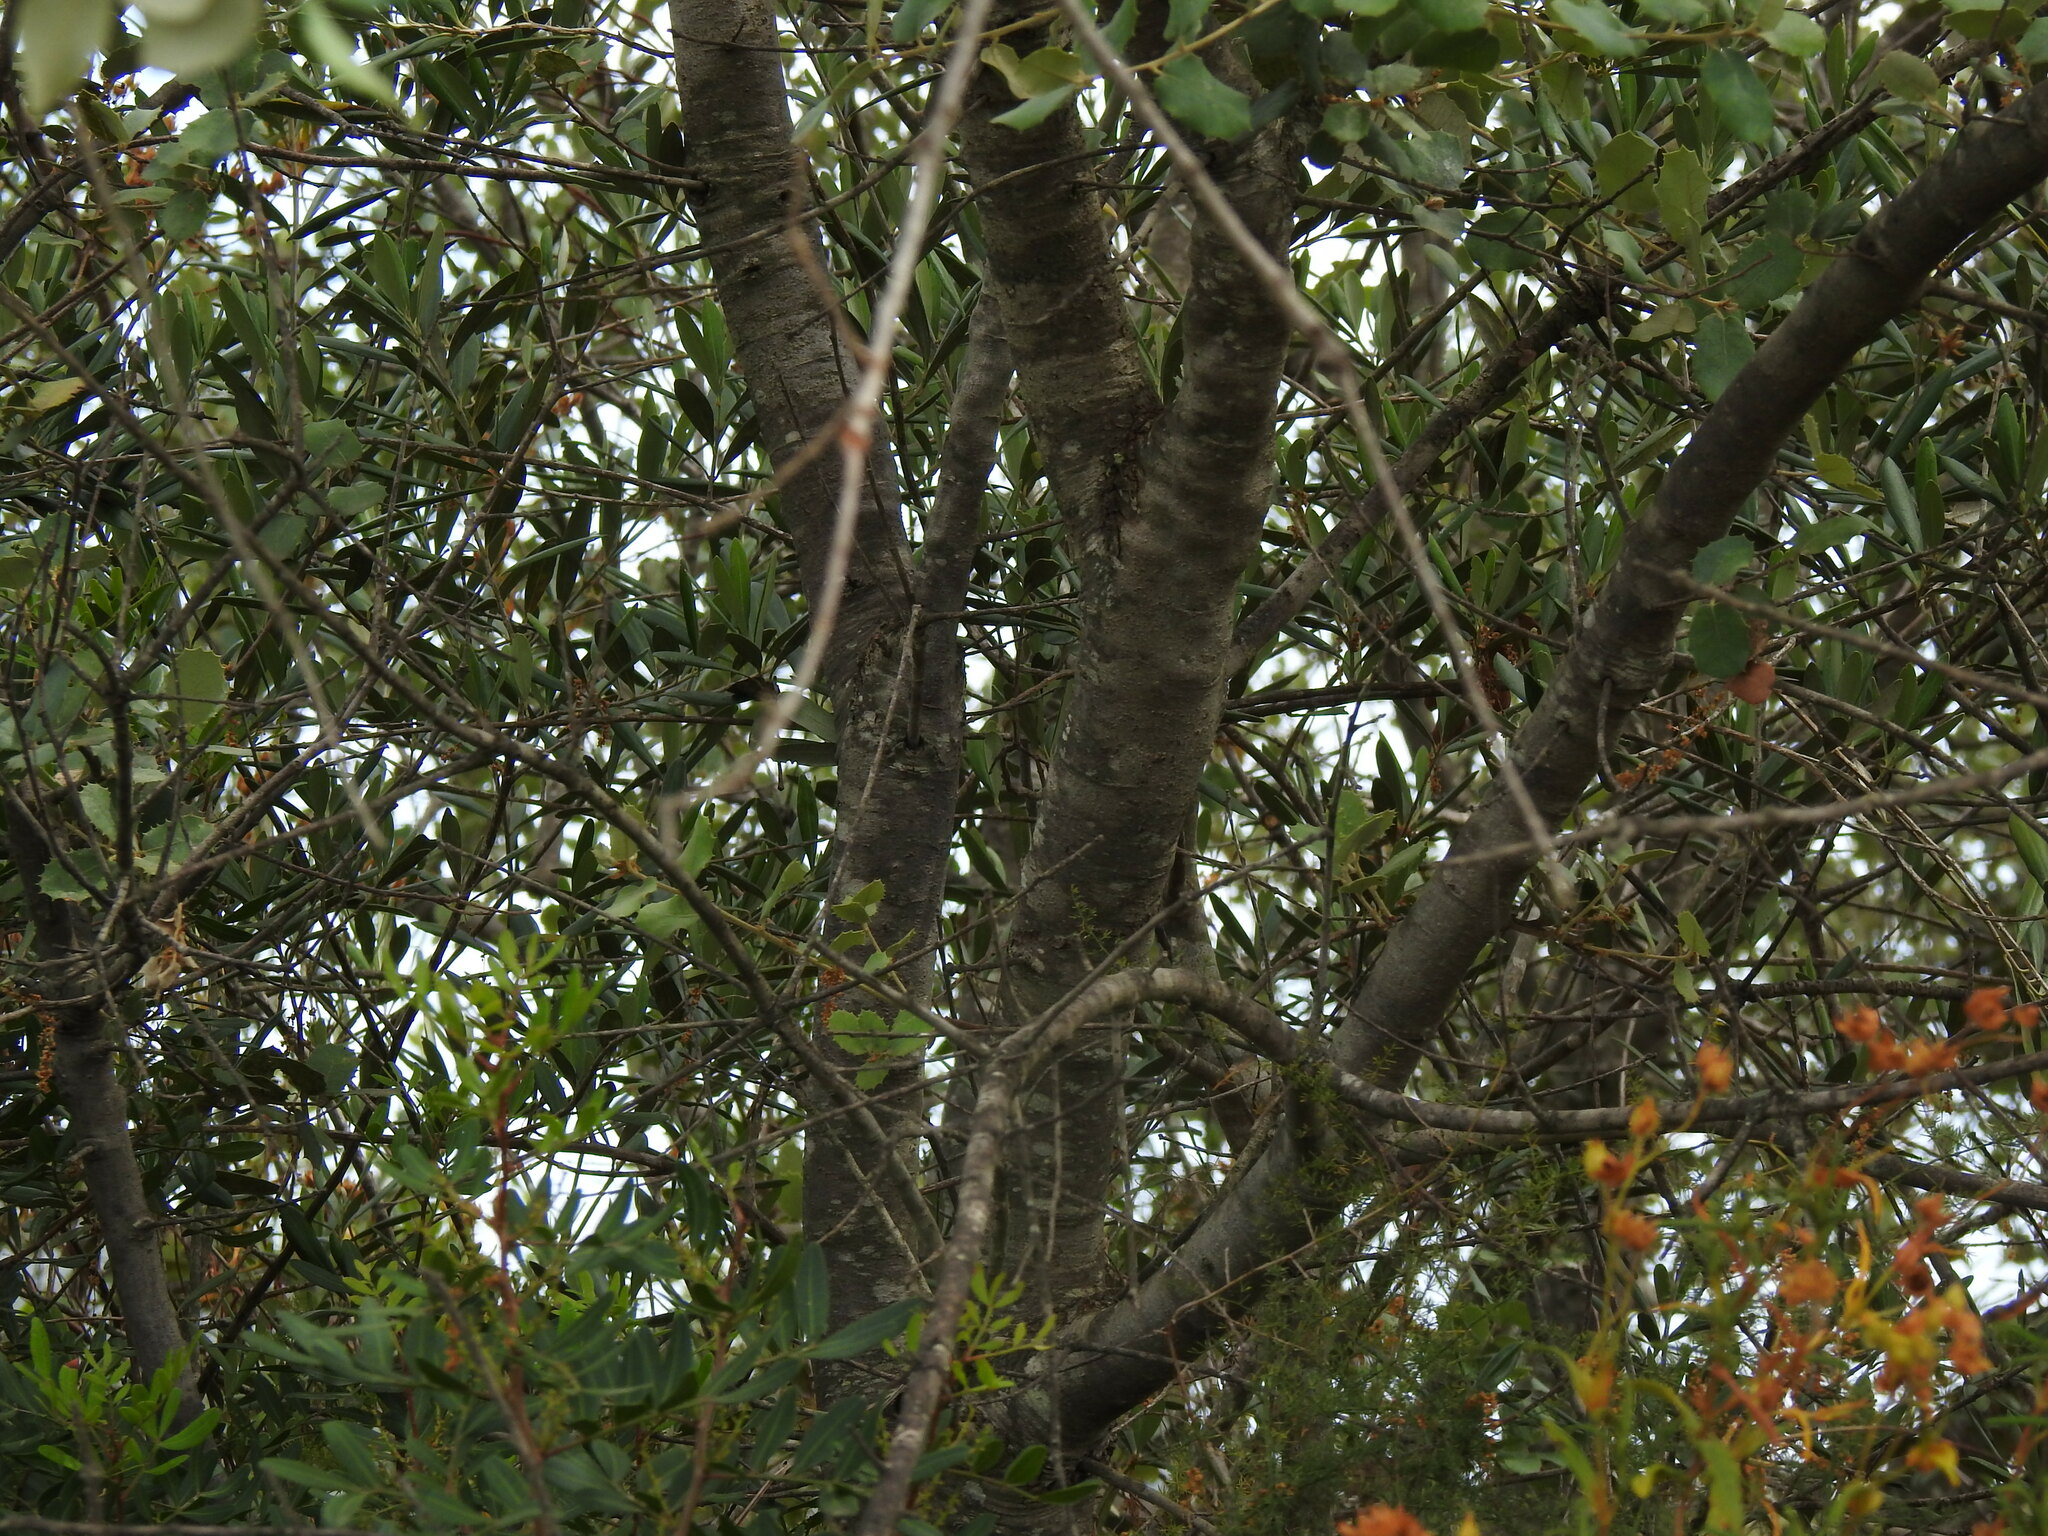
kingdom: Plantae
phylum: Tracheophyta
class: Magnoliopsida
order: Fagales
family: Fagaceae
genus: Quercus
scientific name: Quercus rotundifolia
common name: Holm oak
